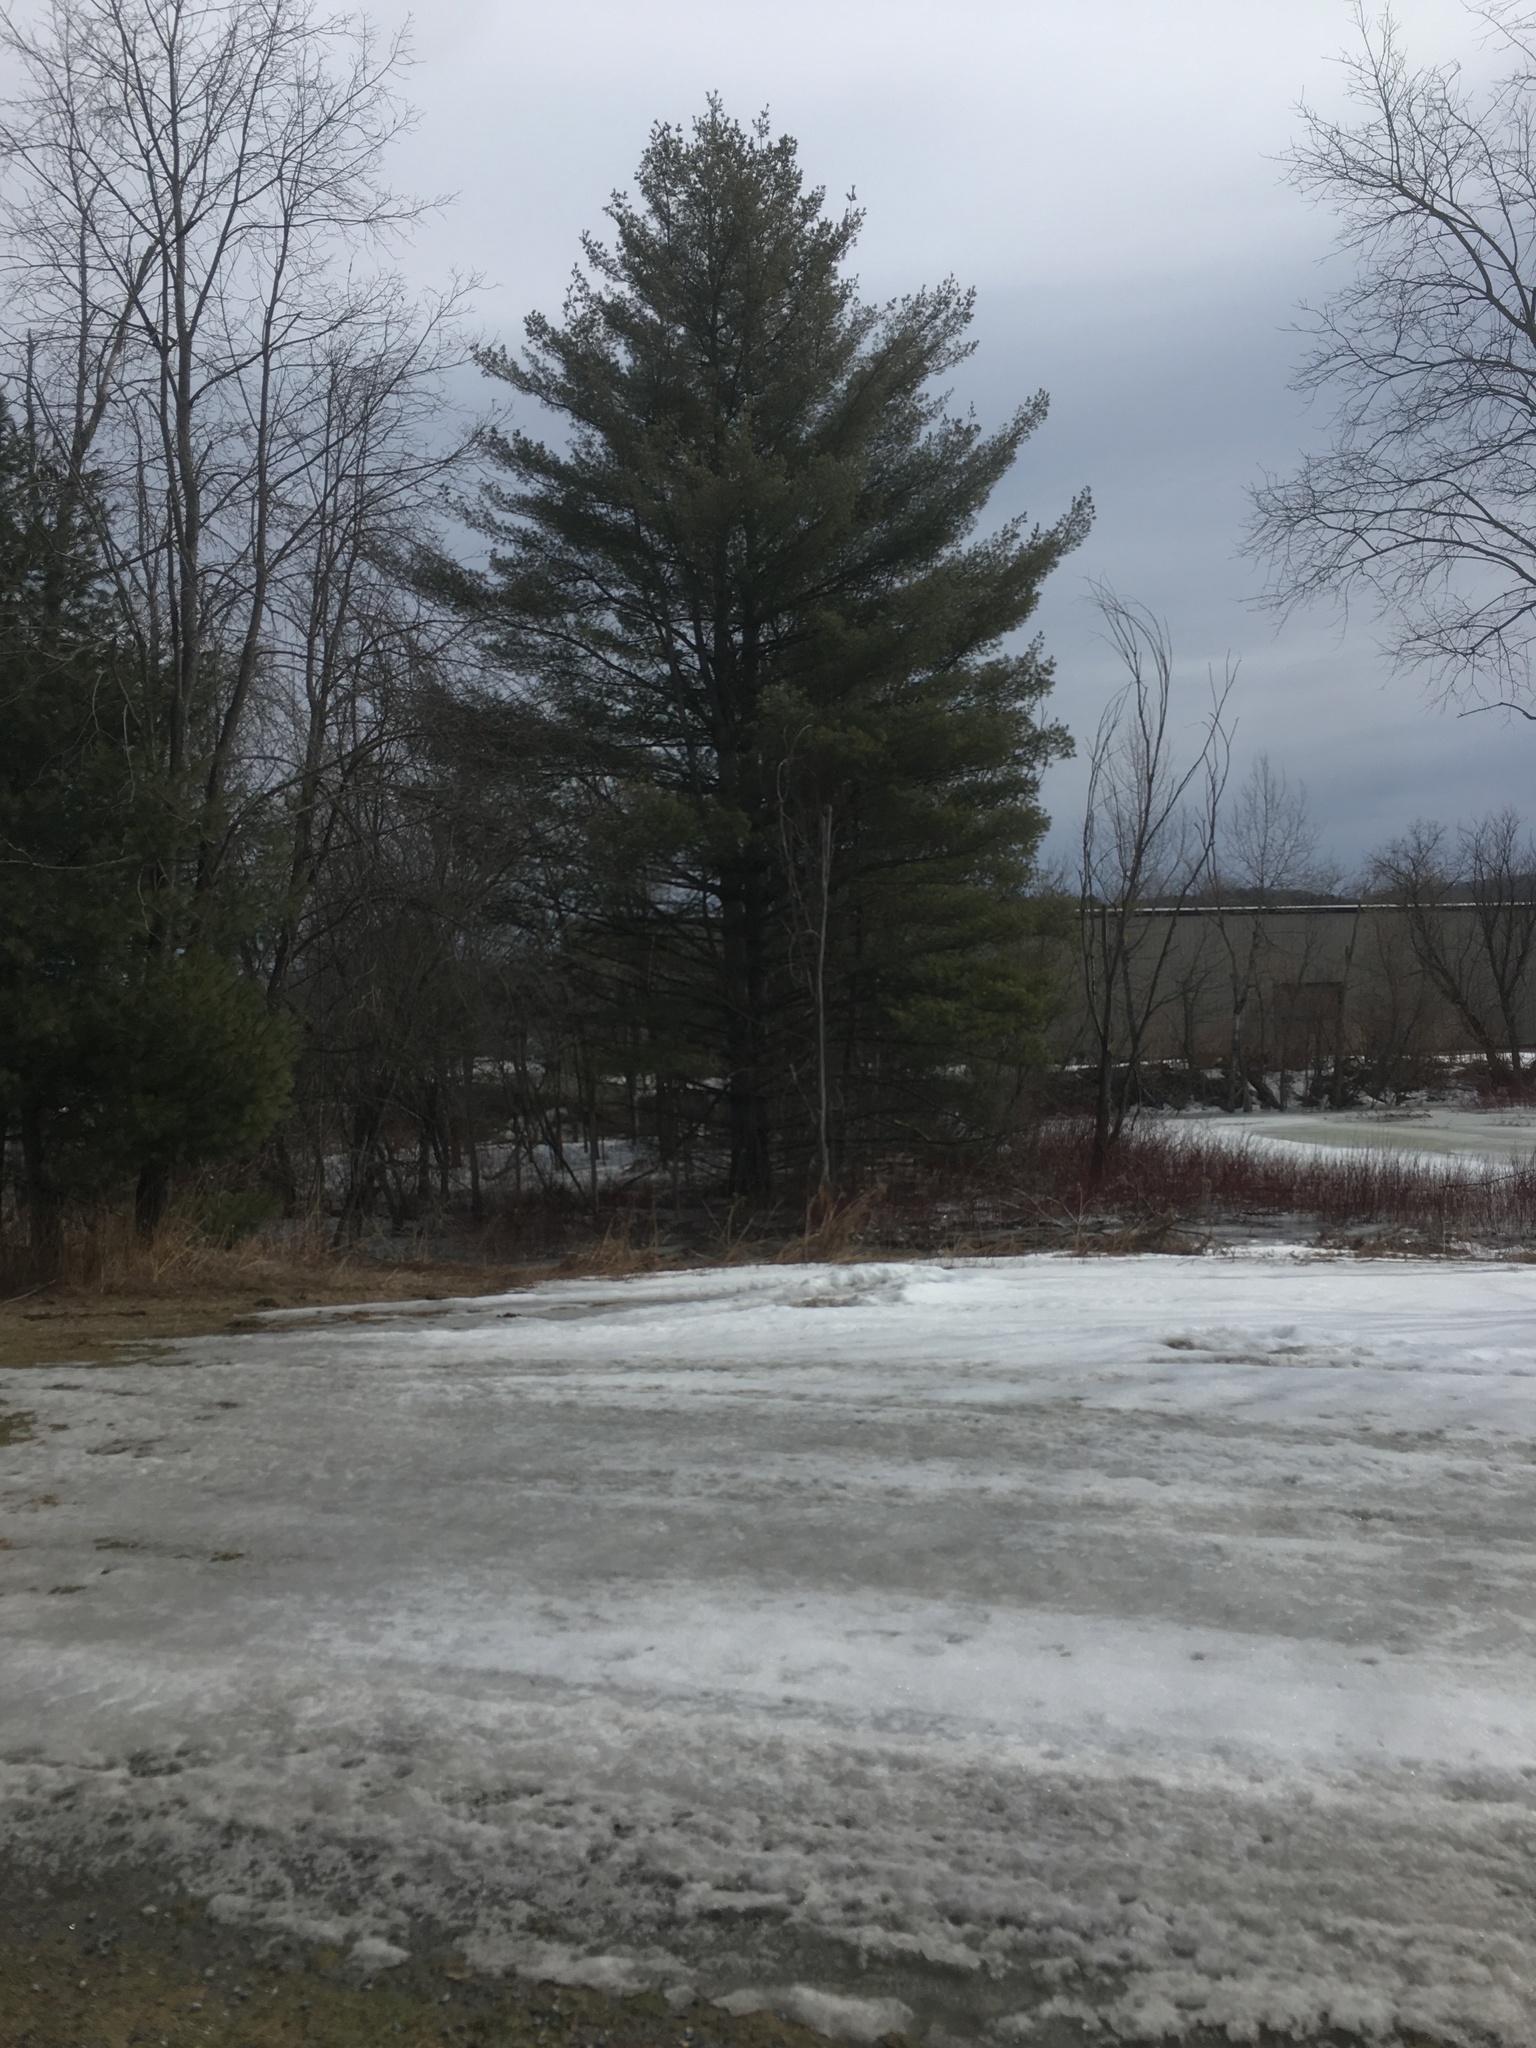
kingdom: Plantae
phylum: Tracheophyta
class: Pinopsida
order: Pinales
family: Pinaceae
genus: Pinus
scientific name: Pinus strobus
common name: Weymouth pine
